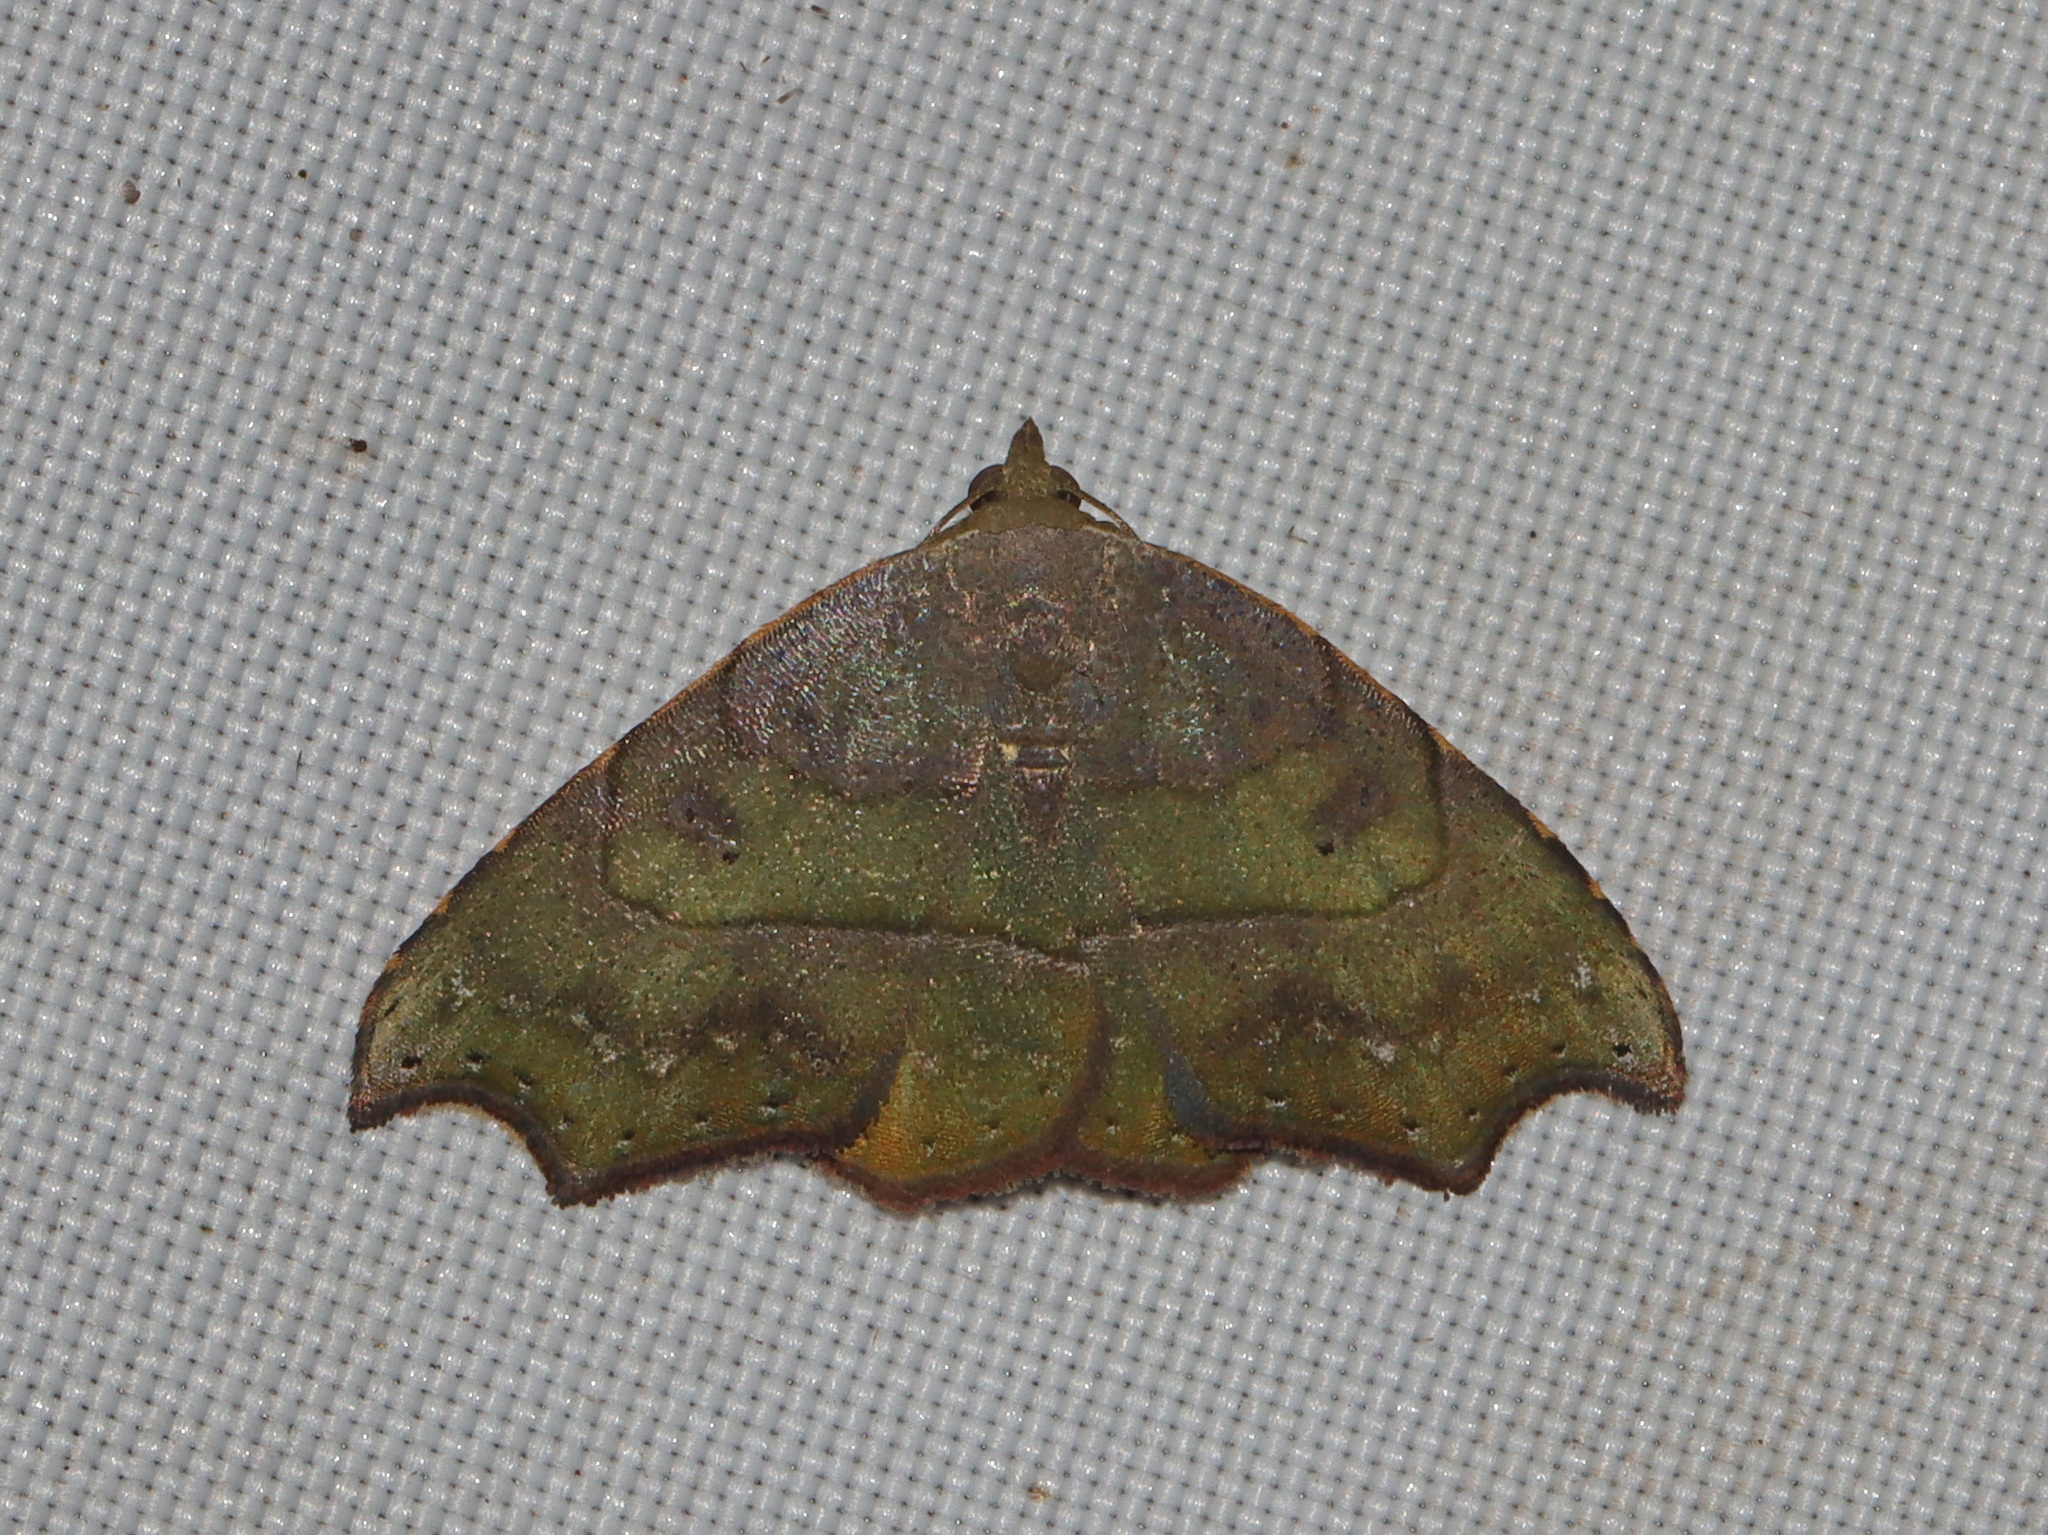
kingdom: Animalia
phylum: Arthropoda
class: Insecta
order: Lepidoptera
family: Erebidae
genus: Artaxa
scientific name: Artaxa distracta
